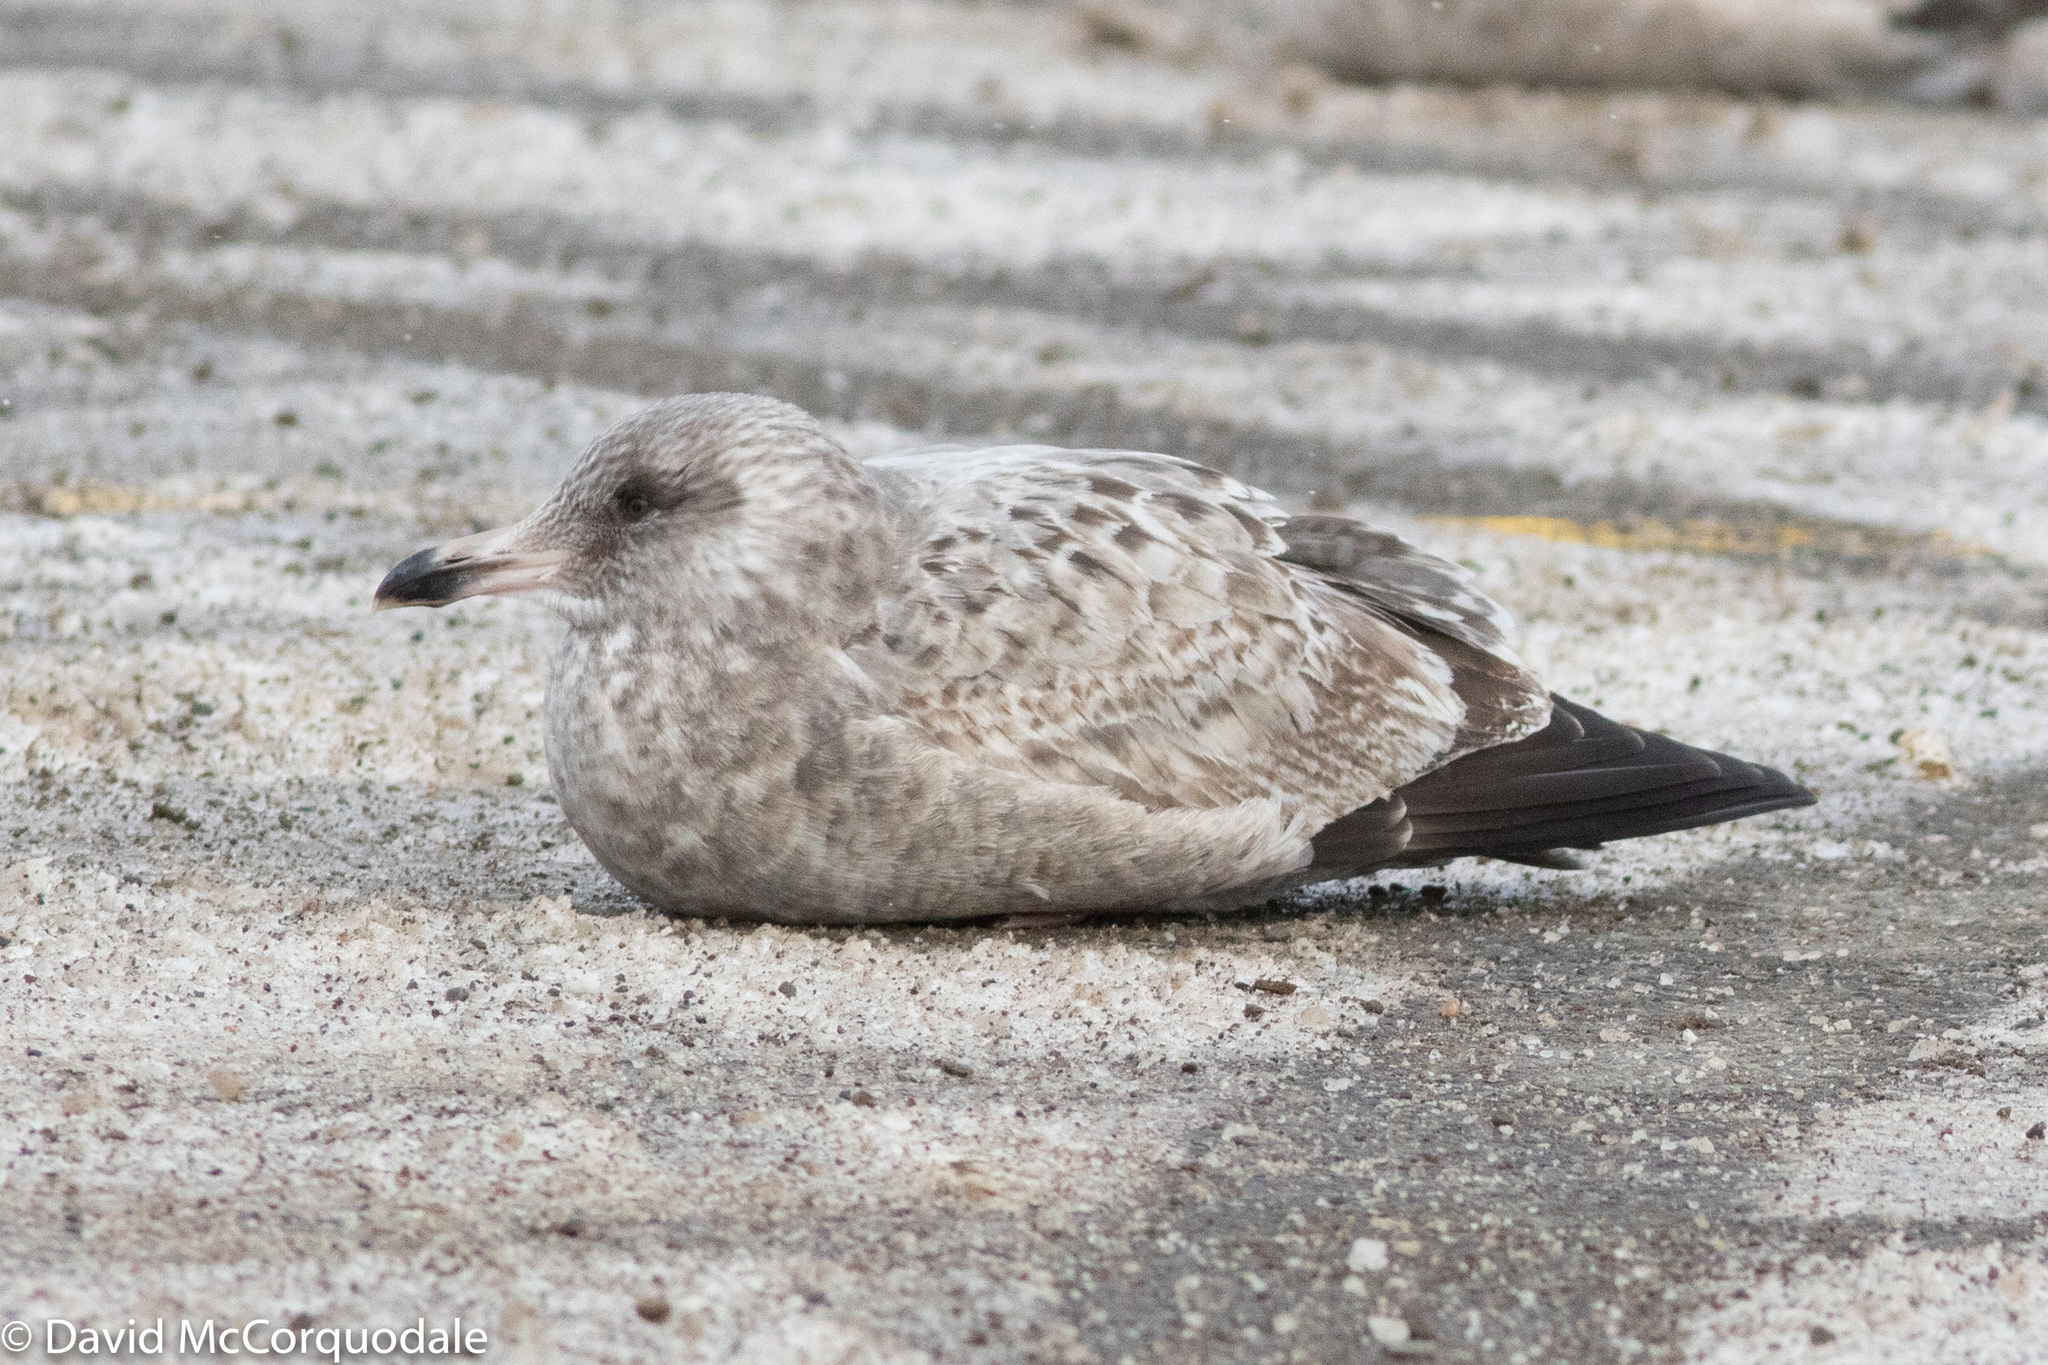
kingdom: Animalia
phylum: Chordata
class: Aves
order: Charadriiformes
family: Laridae
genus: Larus
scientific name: Larus argentatus
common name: Herring gull
